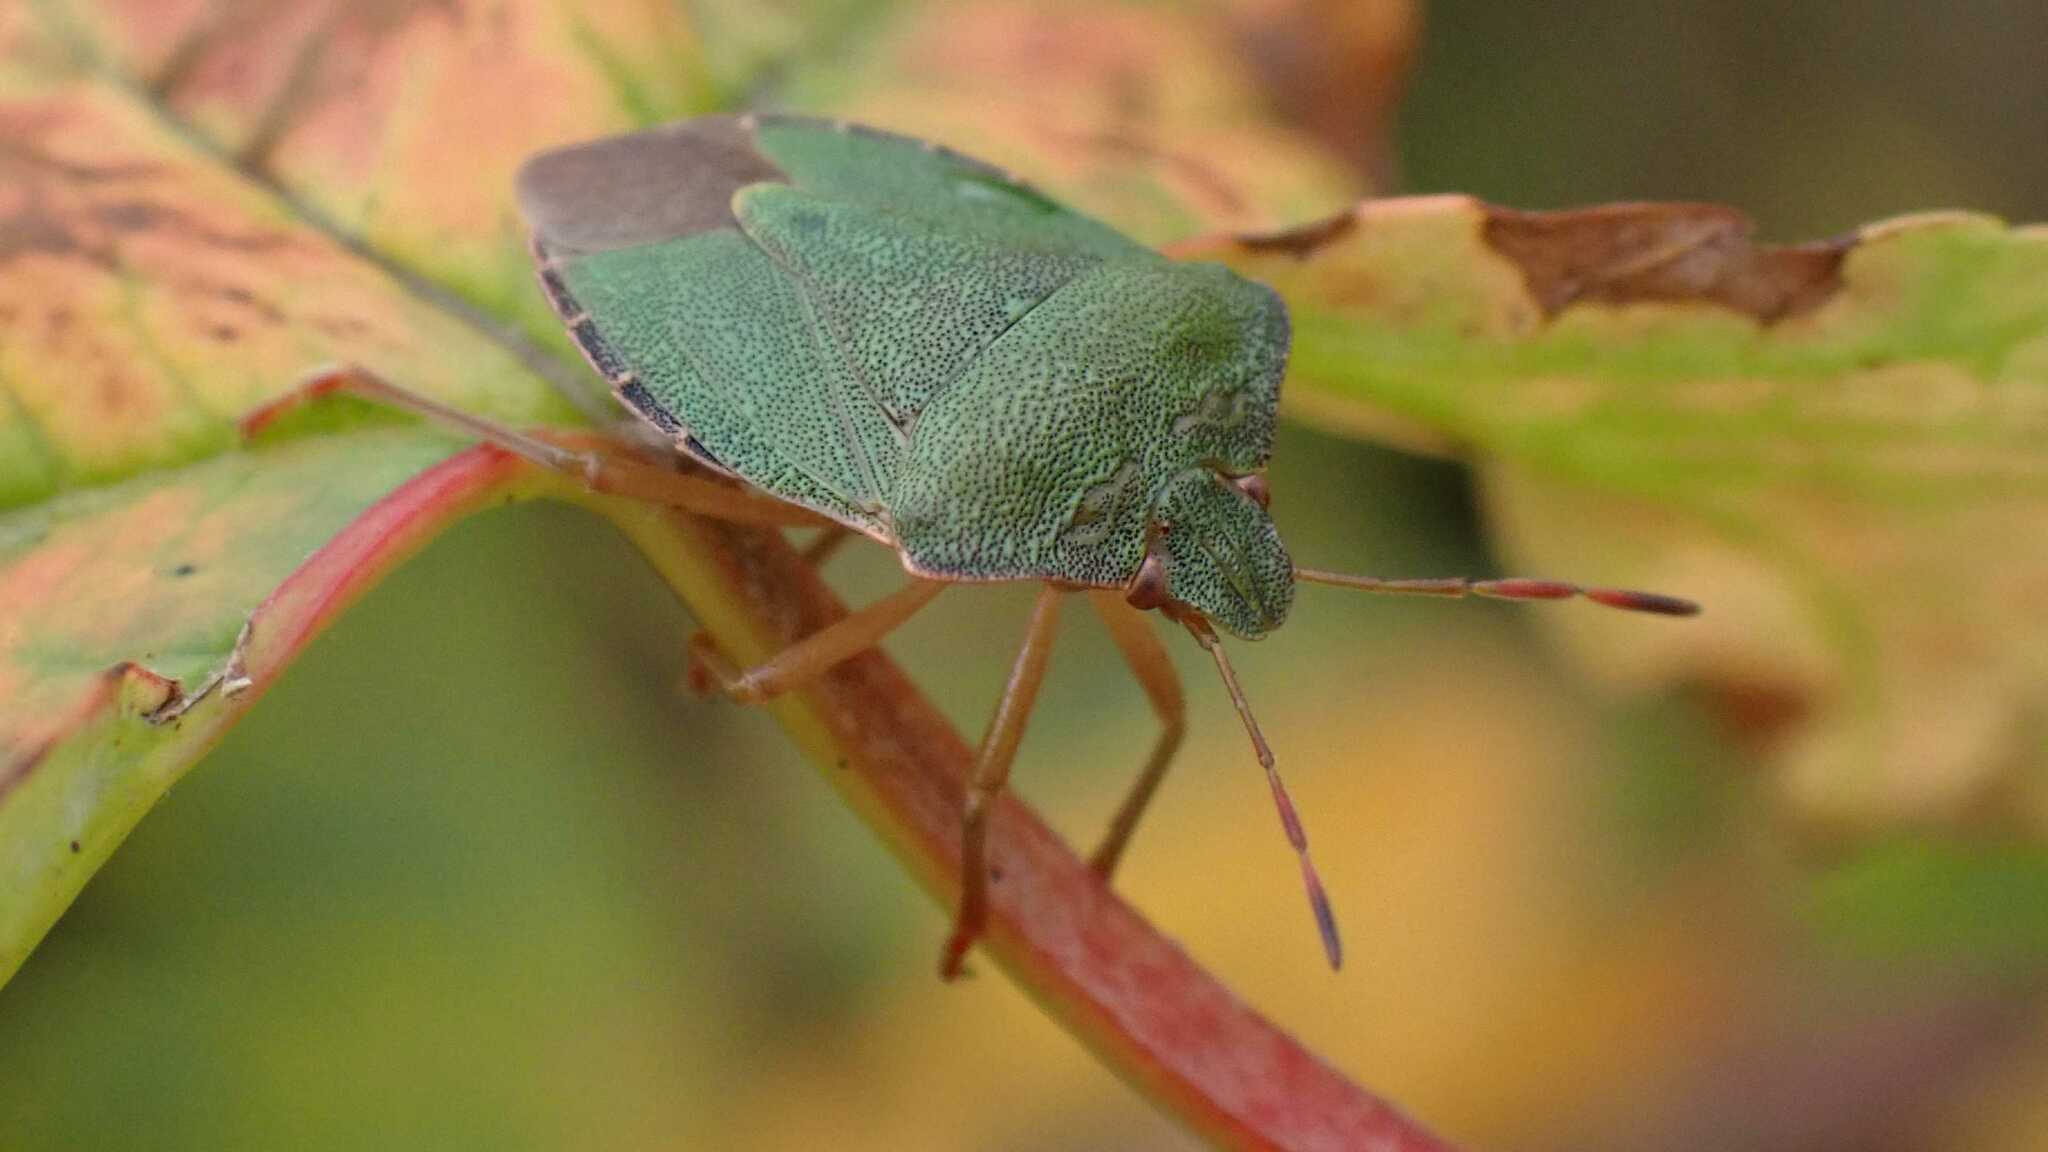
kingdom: Animalia
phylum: Arthropoda
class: Insecta
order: Hemiptera
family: Pentatomidae
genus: Palomena
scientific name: Palomena prasina
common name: Green shieldbug
